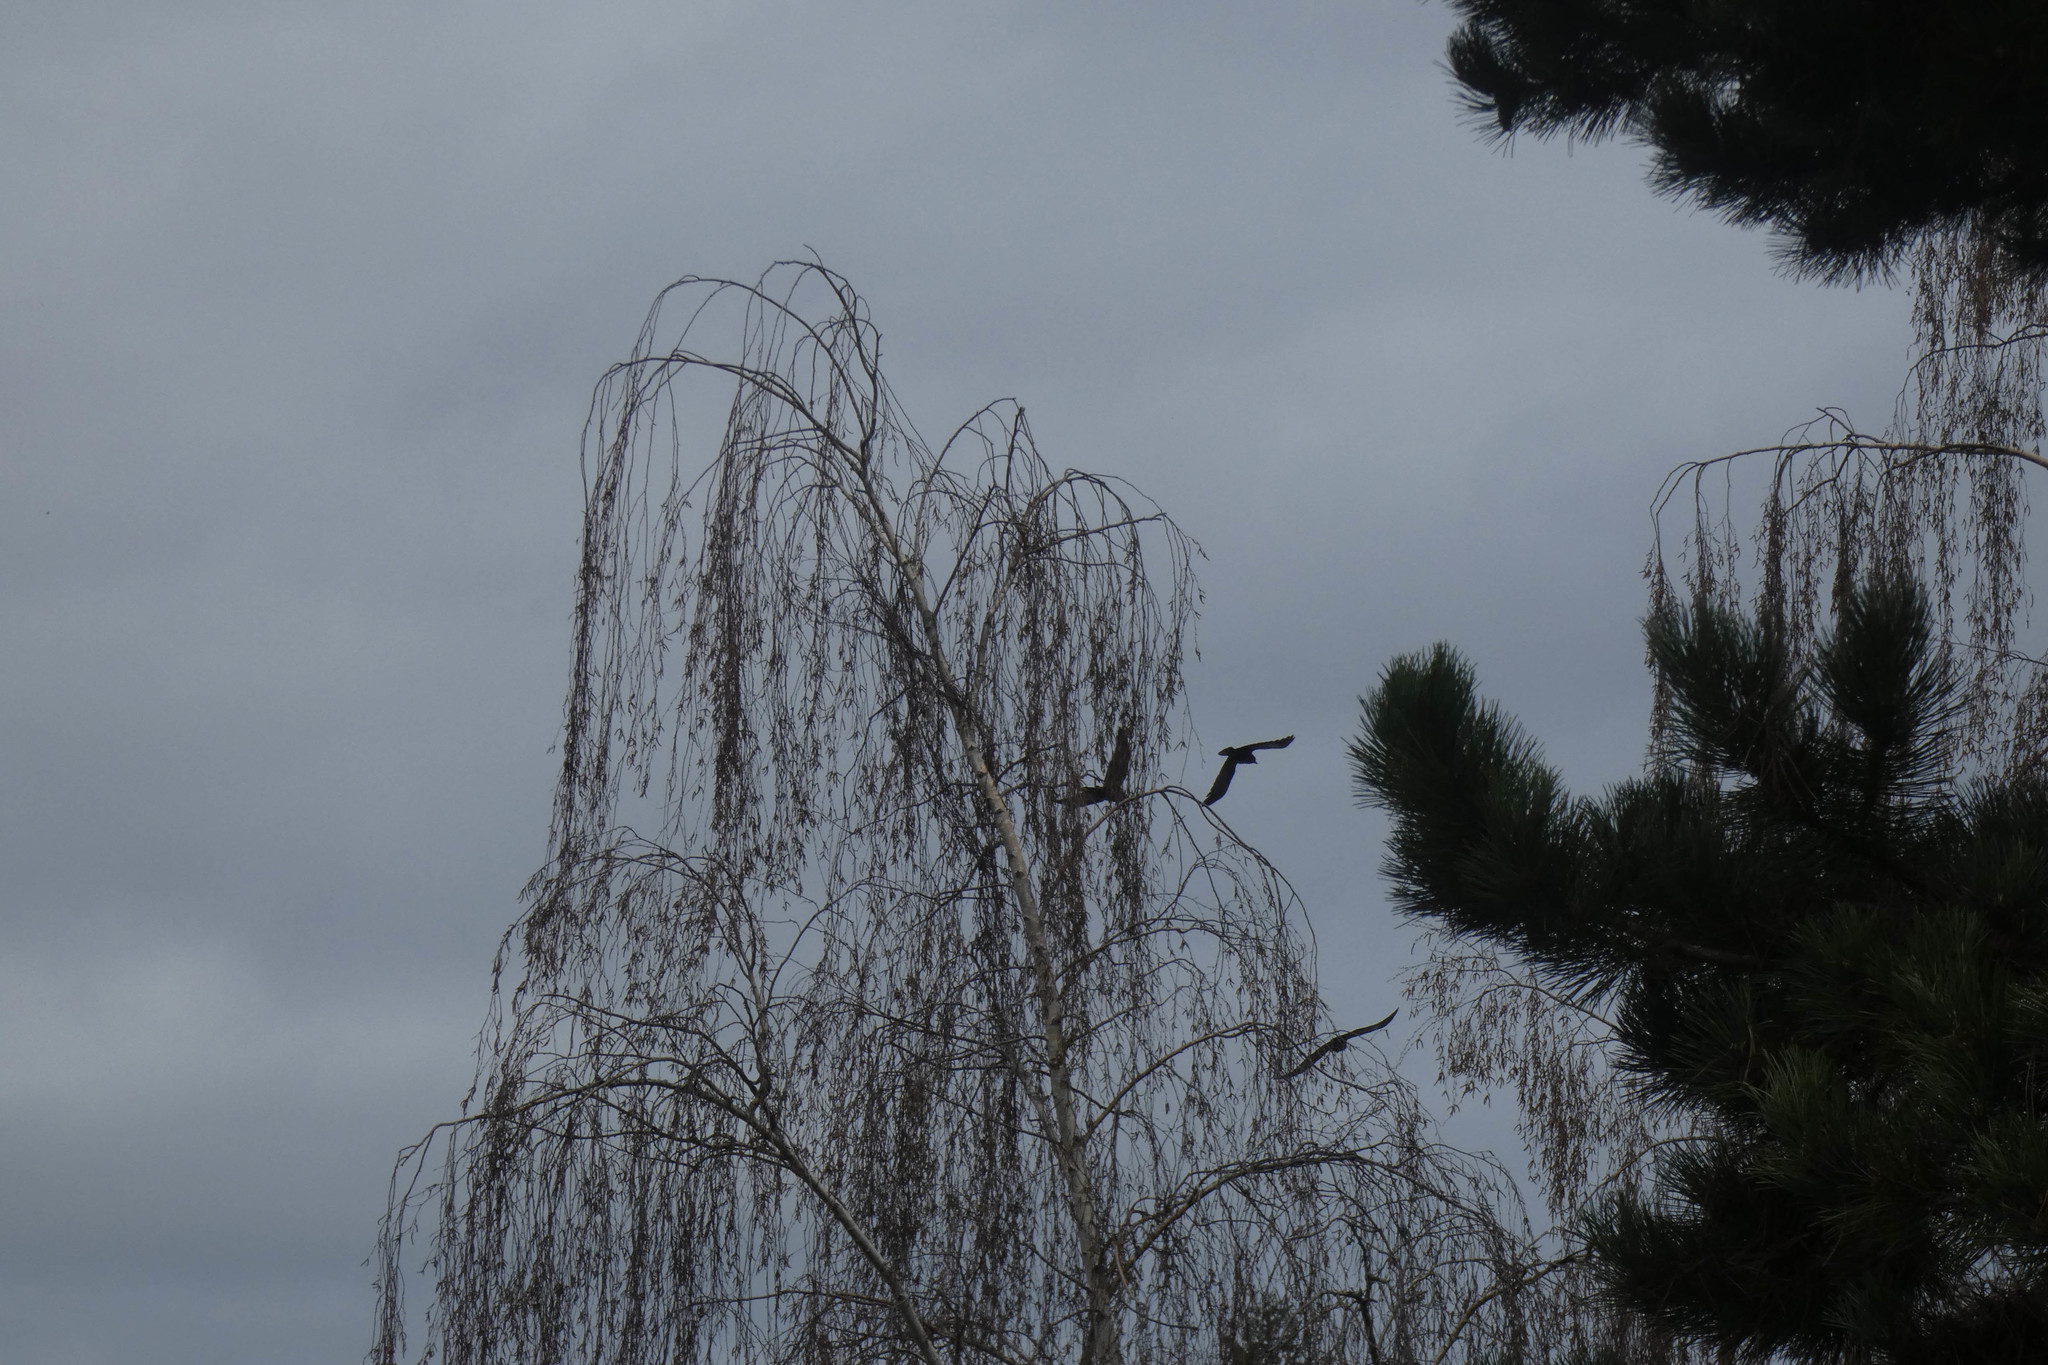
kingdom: Animalia
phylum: Chordata
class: Aves
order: Passeriformes
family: Corvidae
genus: Corvus
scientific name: Corvus brachyrhynchos
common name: American crow
